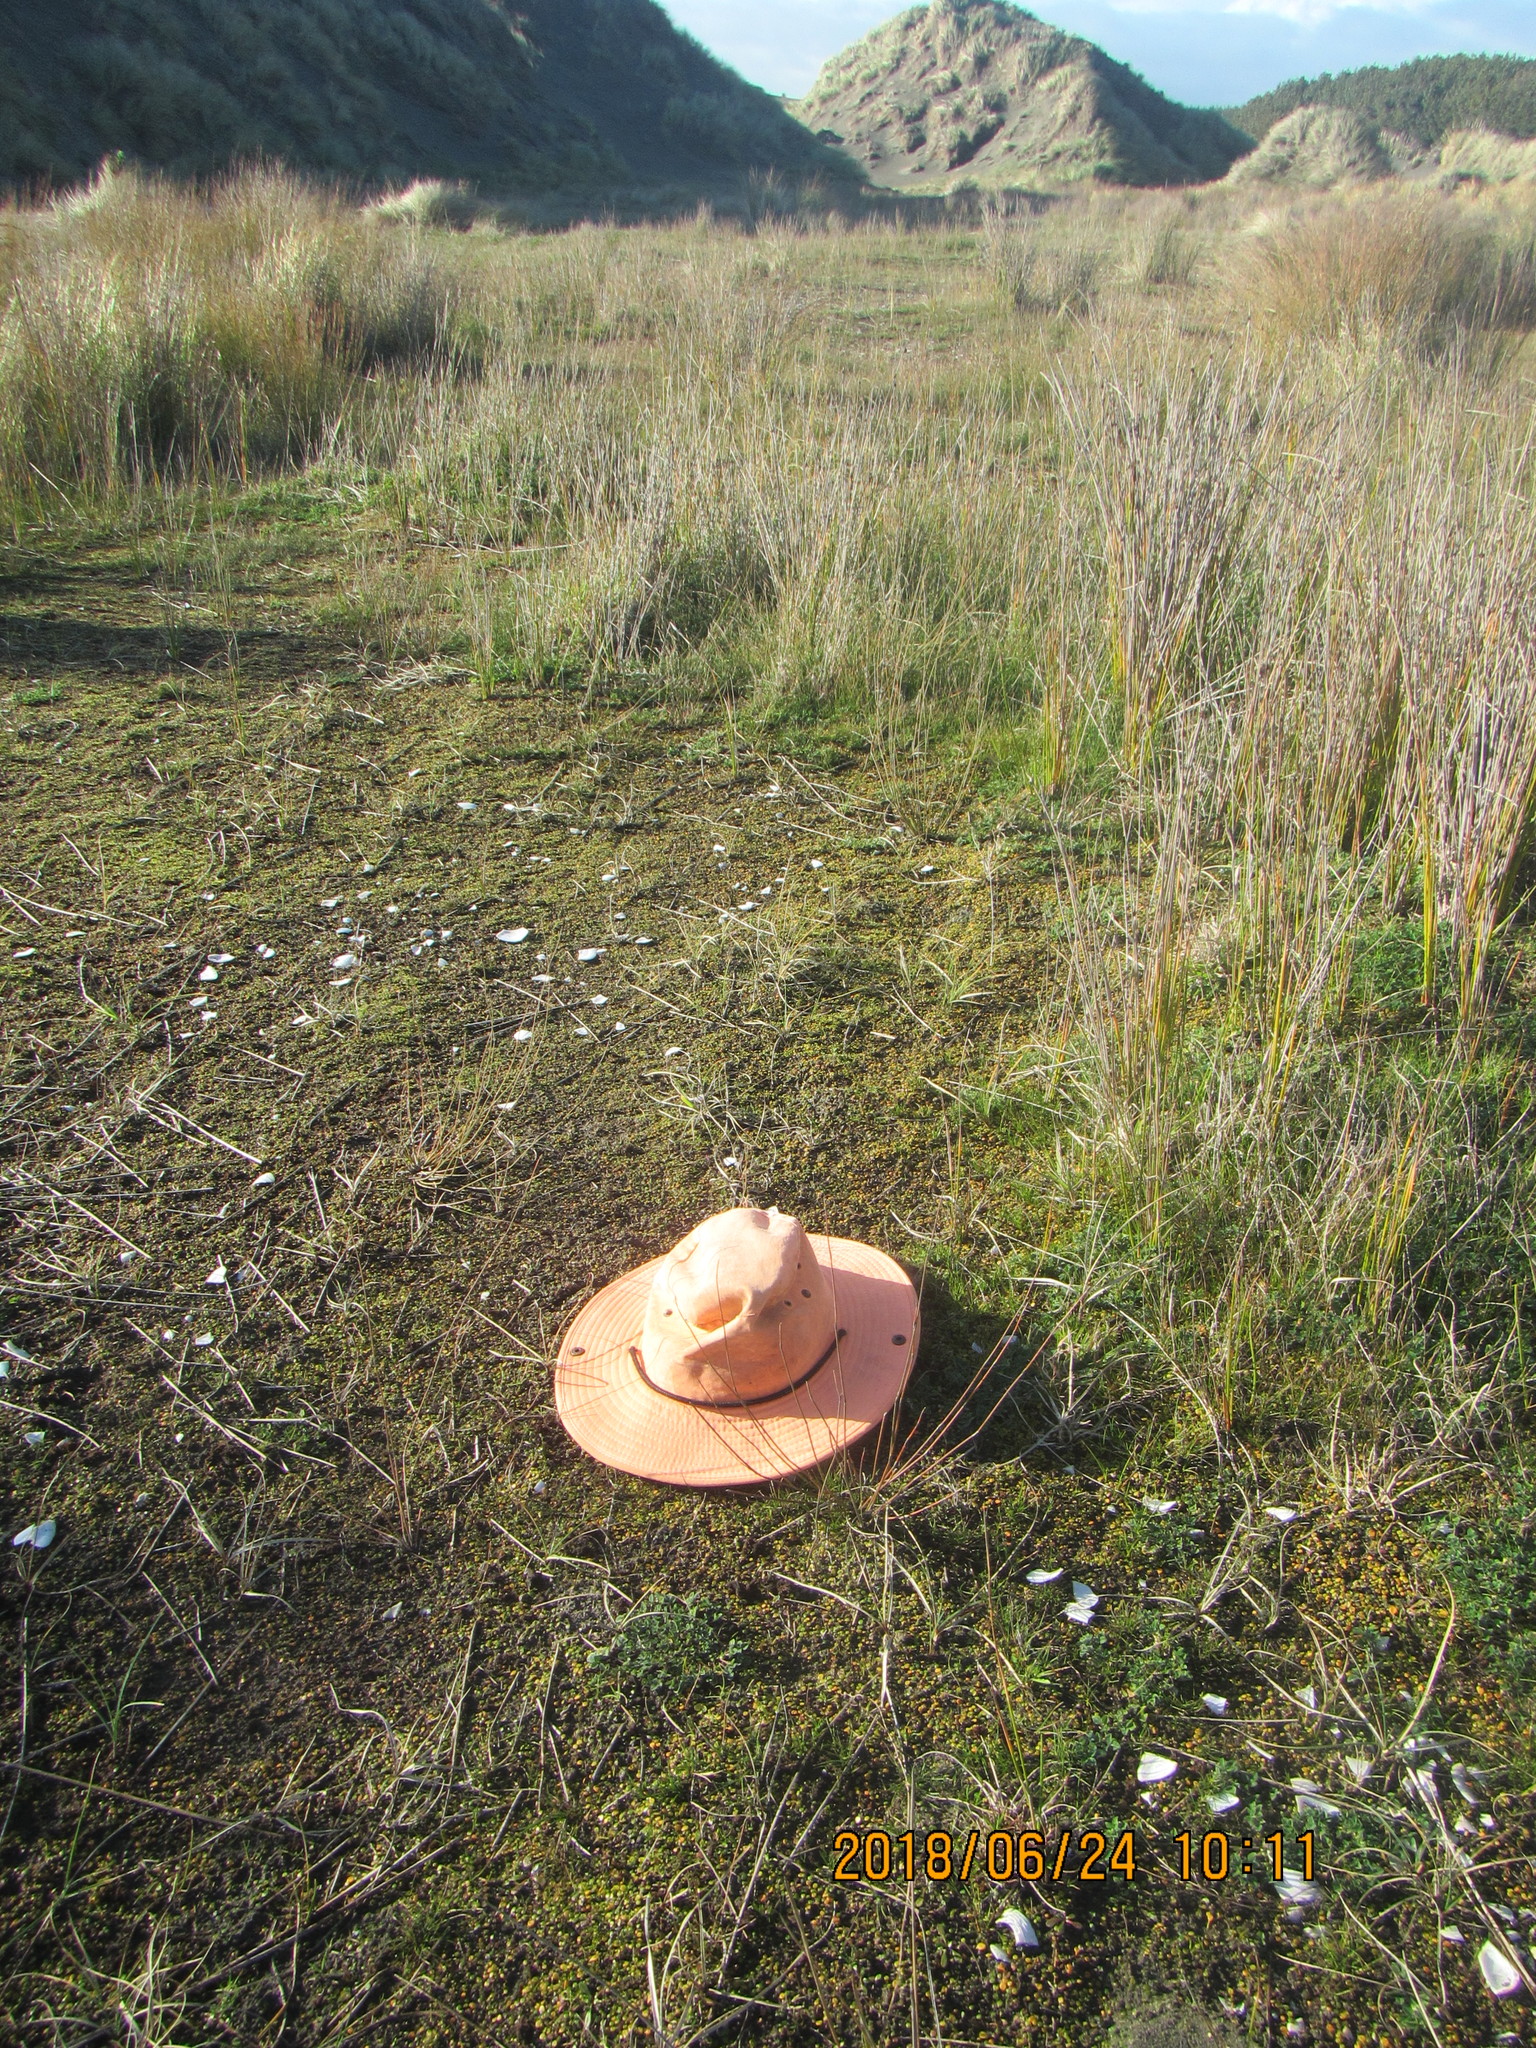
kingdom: Plantae
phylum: Tracheophyta
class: Liliopsida
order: Poales
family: Cyperaceae
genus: Schoenus
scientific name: Schoenus nitens
